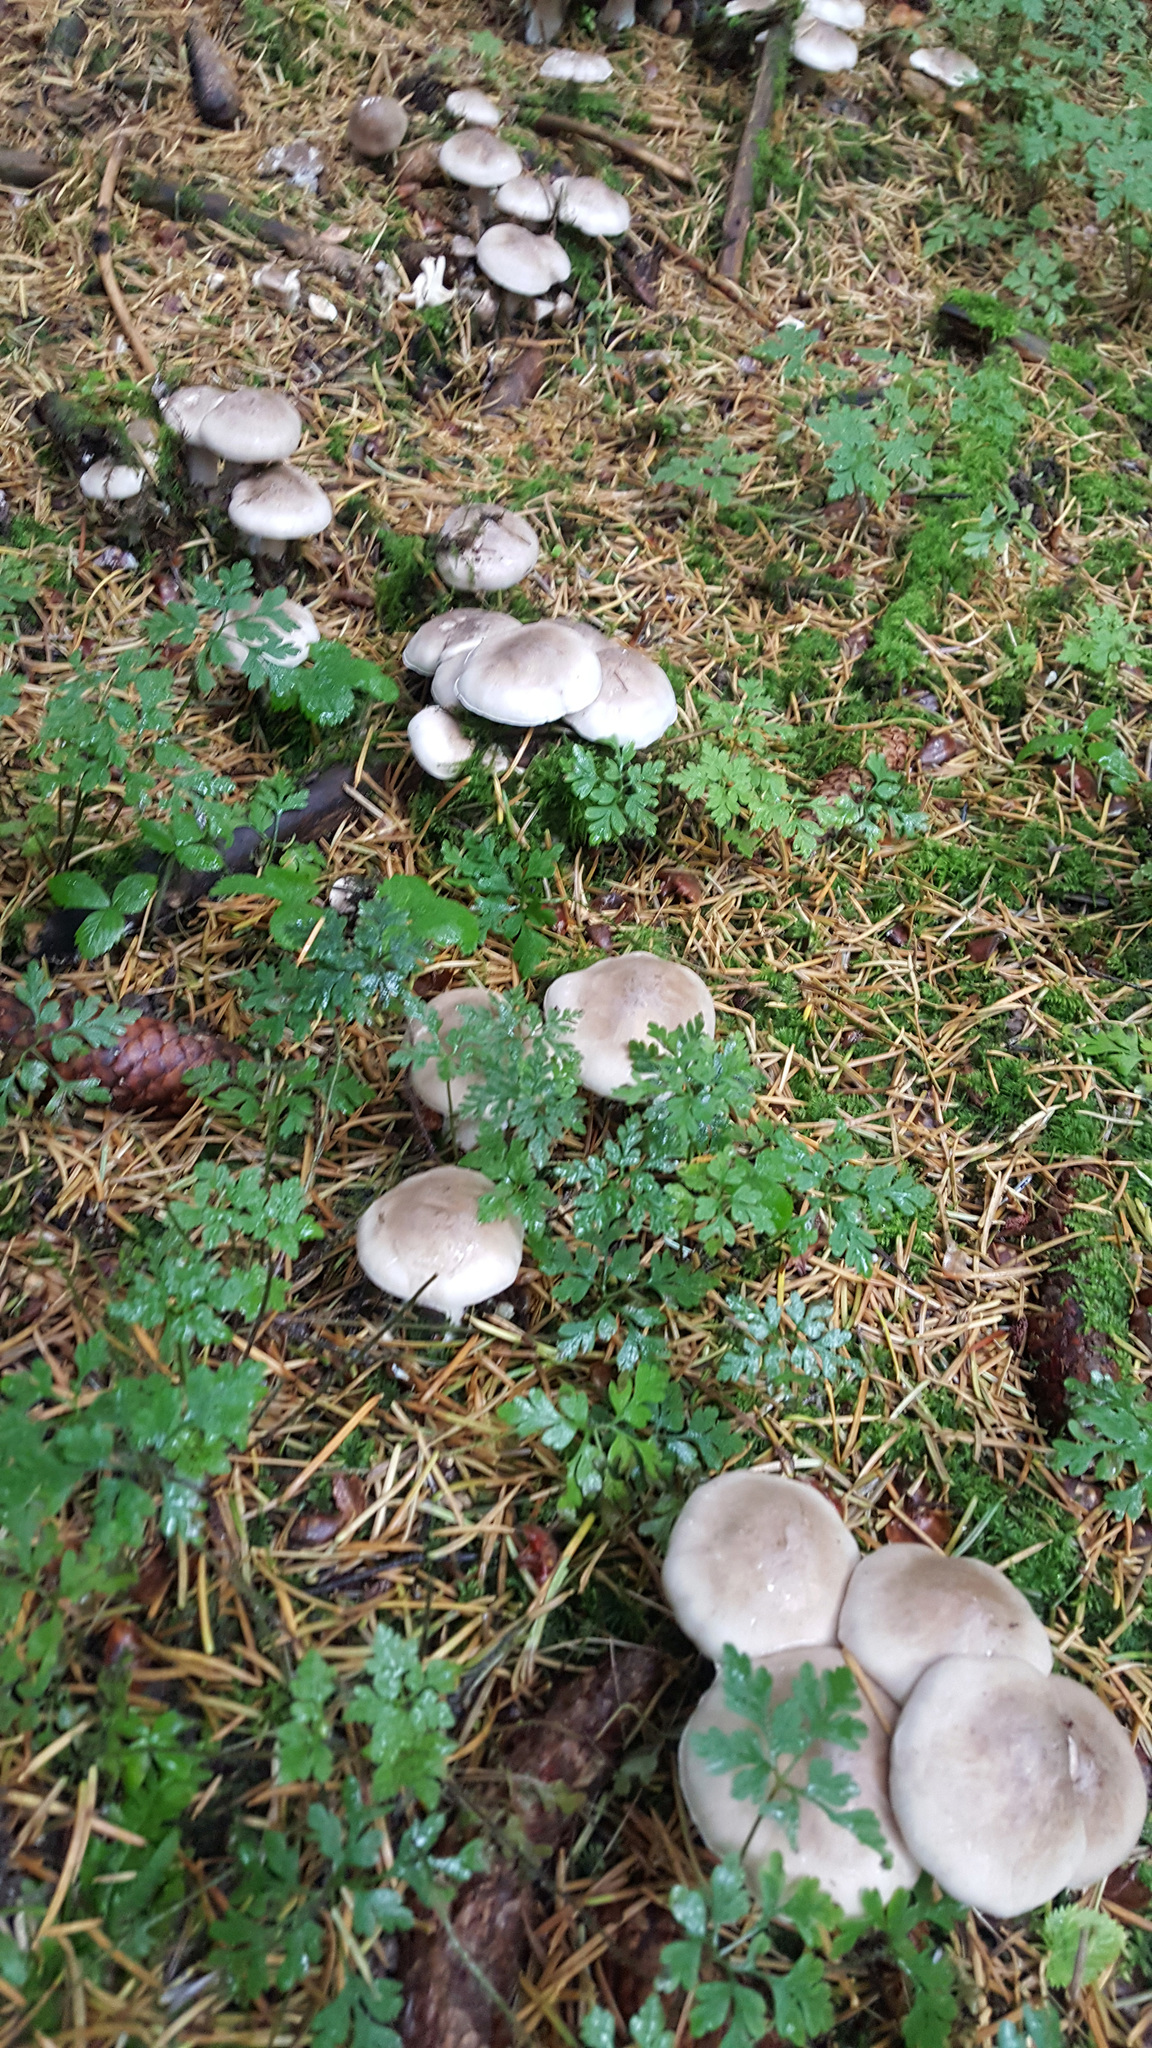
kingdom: Fungi
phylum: Basidiomycota
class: Agaricomycetes
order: Agaricales
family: Tricholomataceae
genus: Clitocybe
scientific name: Clitocybe nebularis
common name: Clouded agaric
